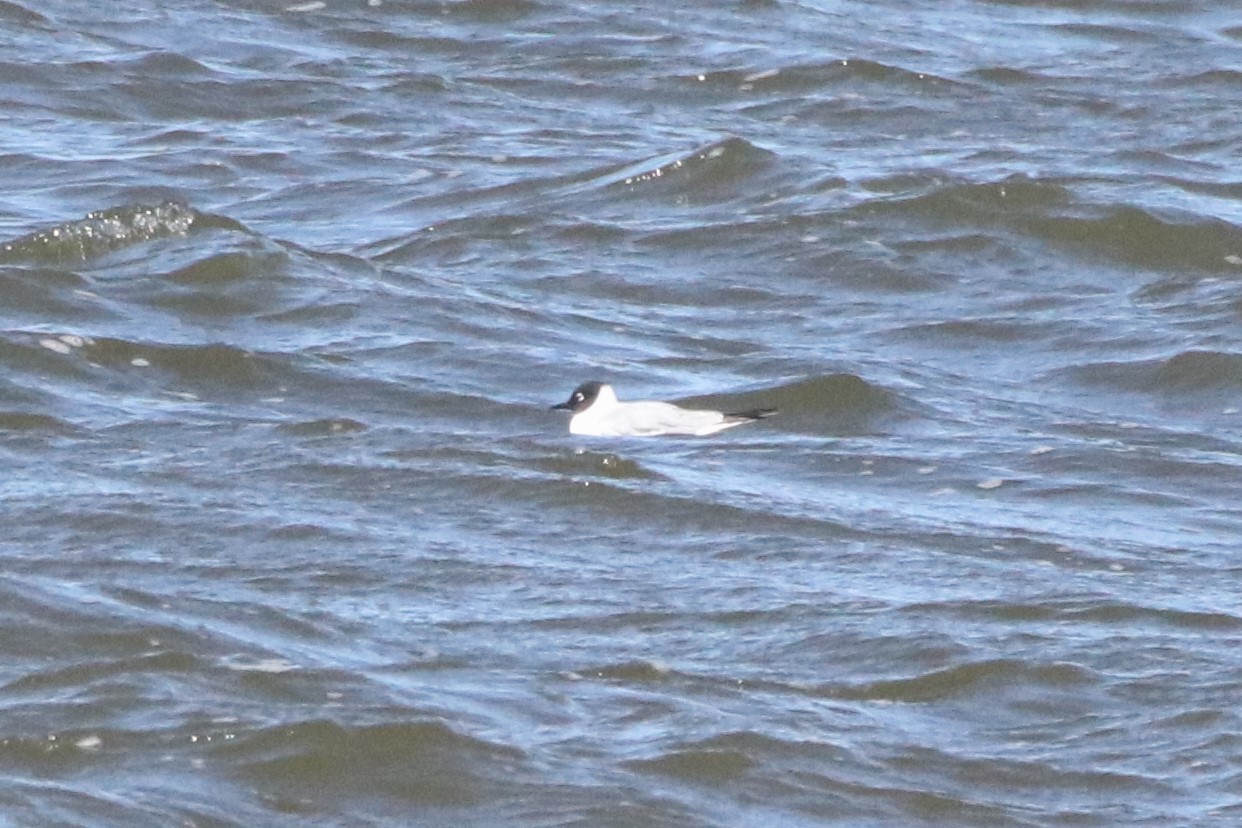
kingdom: Animalia
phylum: Chordata
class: Aves
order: Charadriiformes
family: Laridae
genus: Chroicocephalus
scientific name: Chroicocephalus philadelphia
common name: Bonaparte's gull
